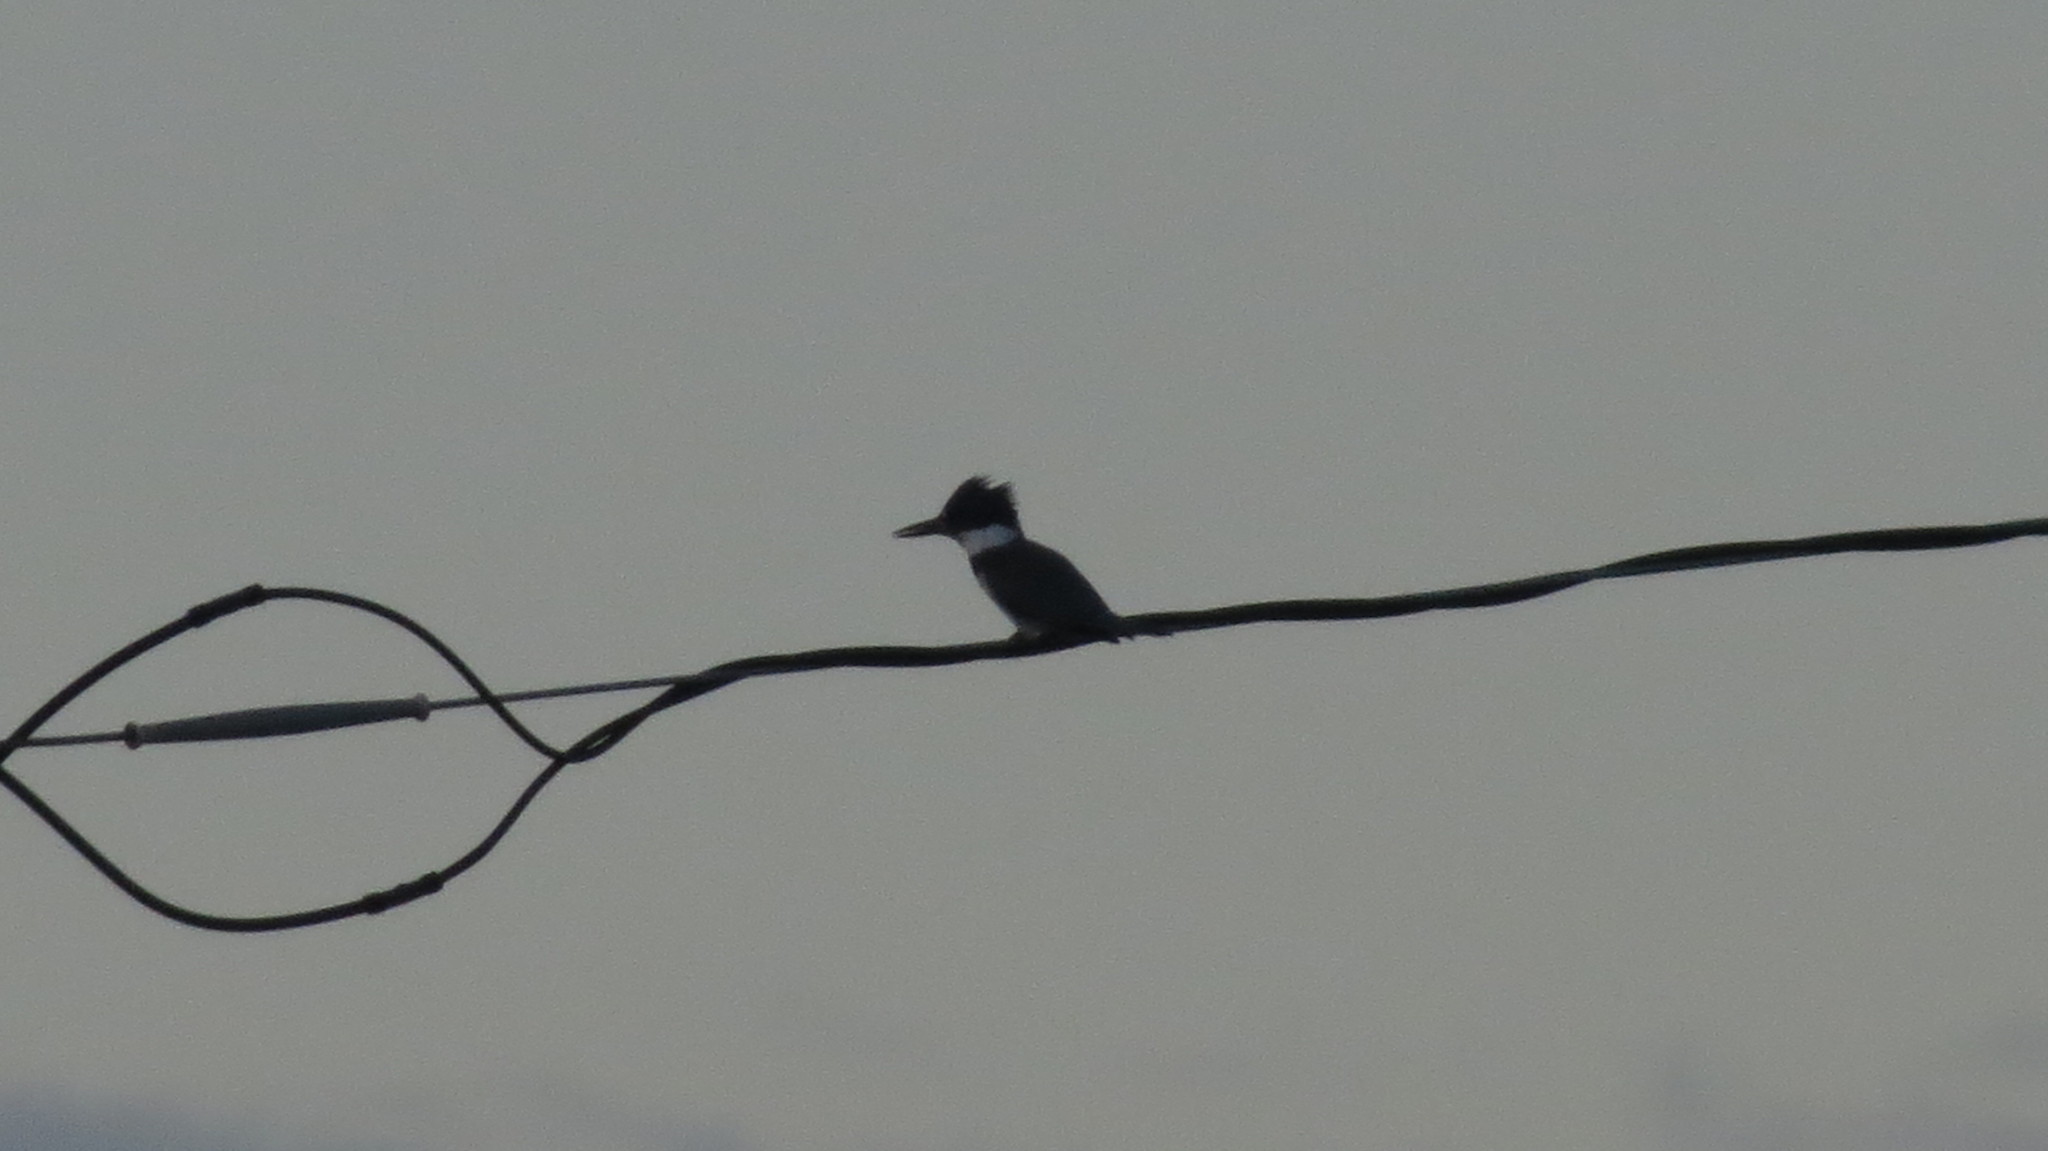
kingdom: Animalia
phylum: Chordata
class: Aves
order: Coraciiformes
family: Alcedinidae
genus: Megaceryle
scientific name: Megaceryle alcyon
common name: Belted kingfisher
